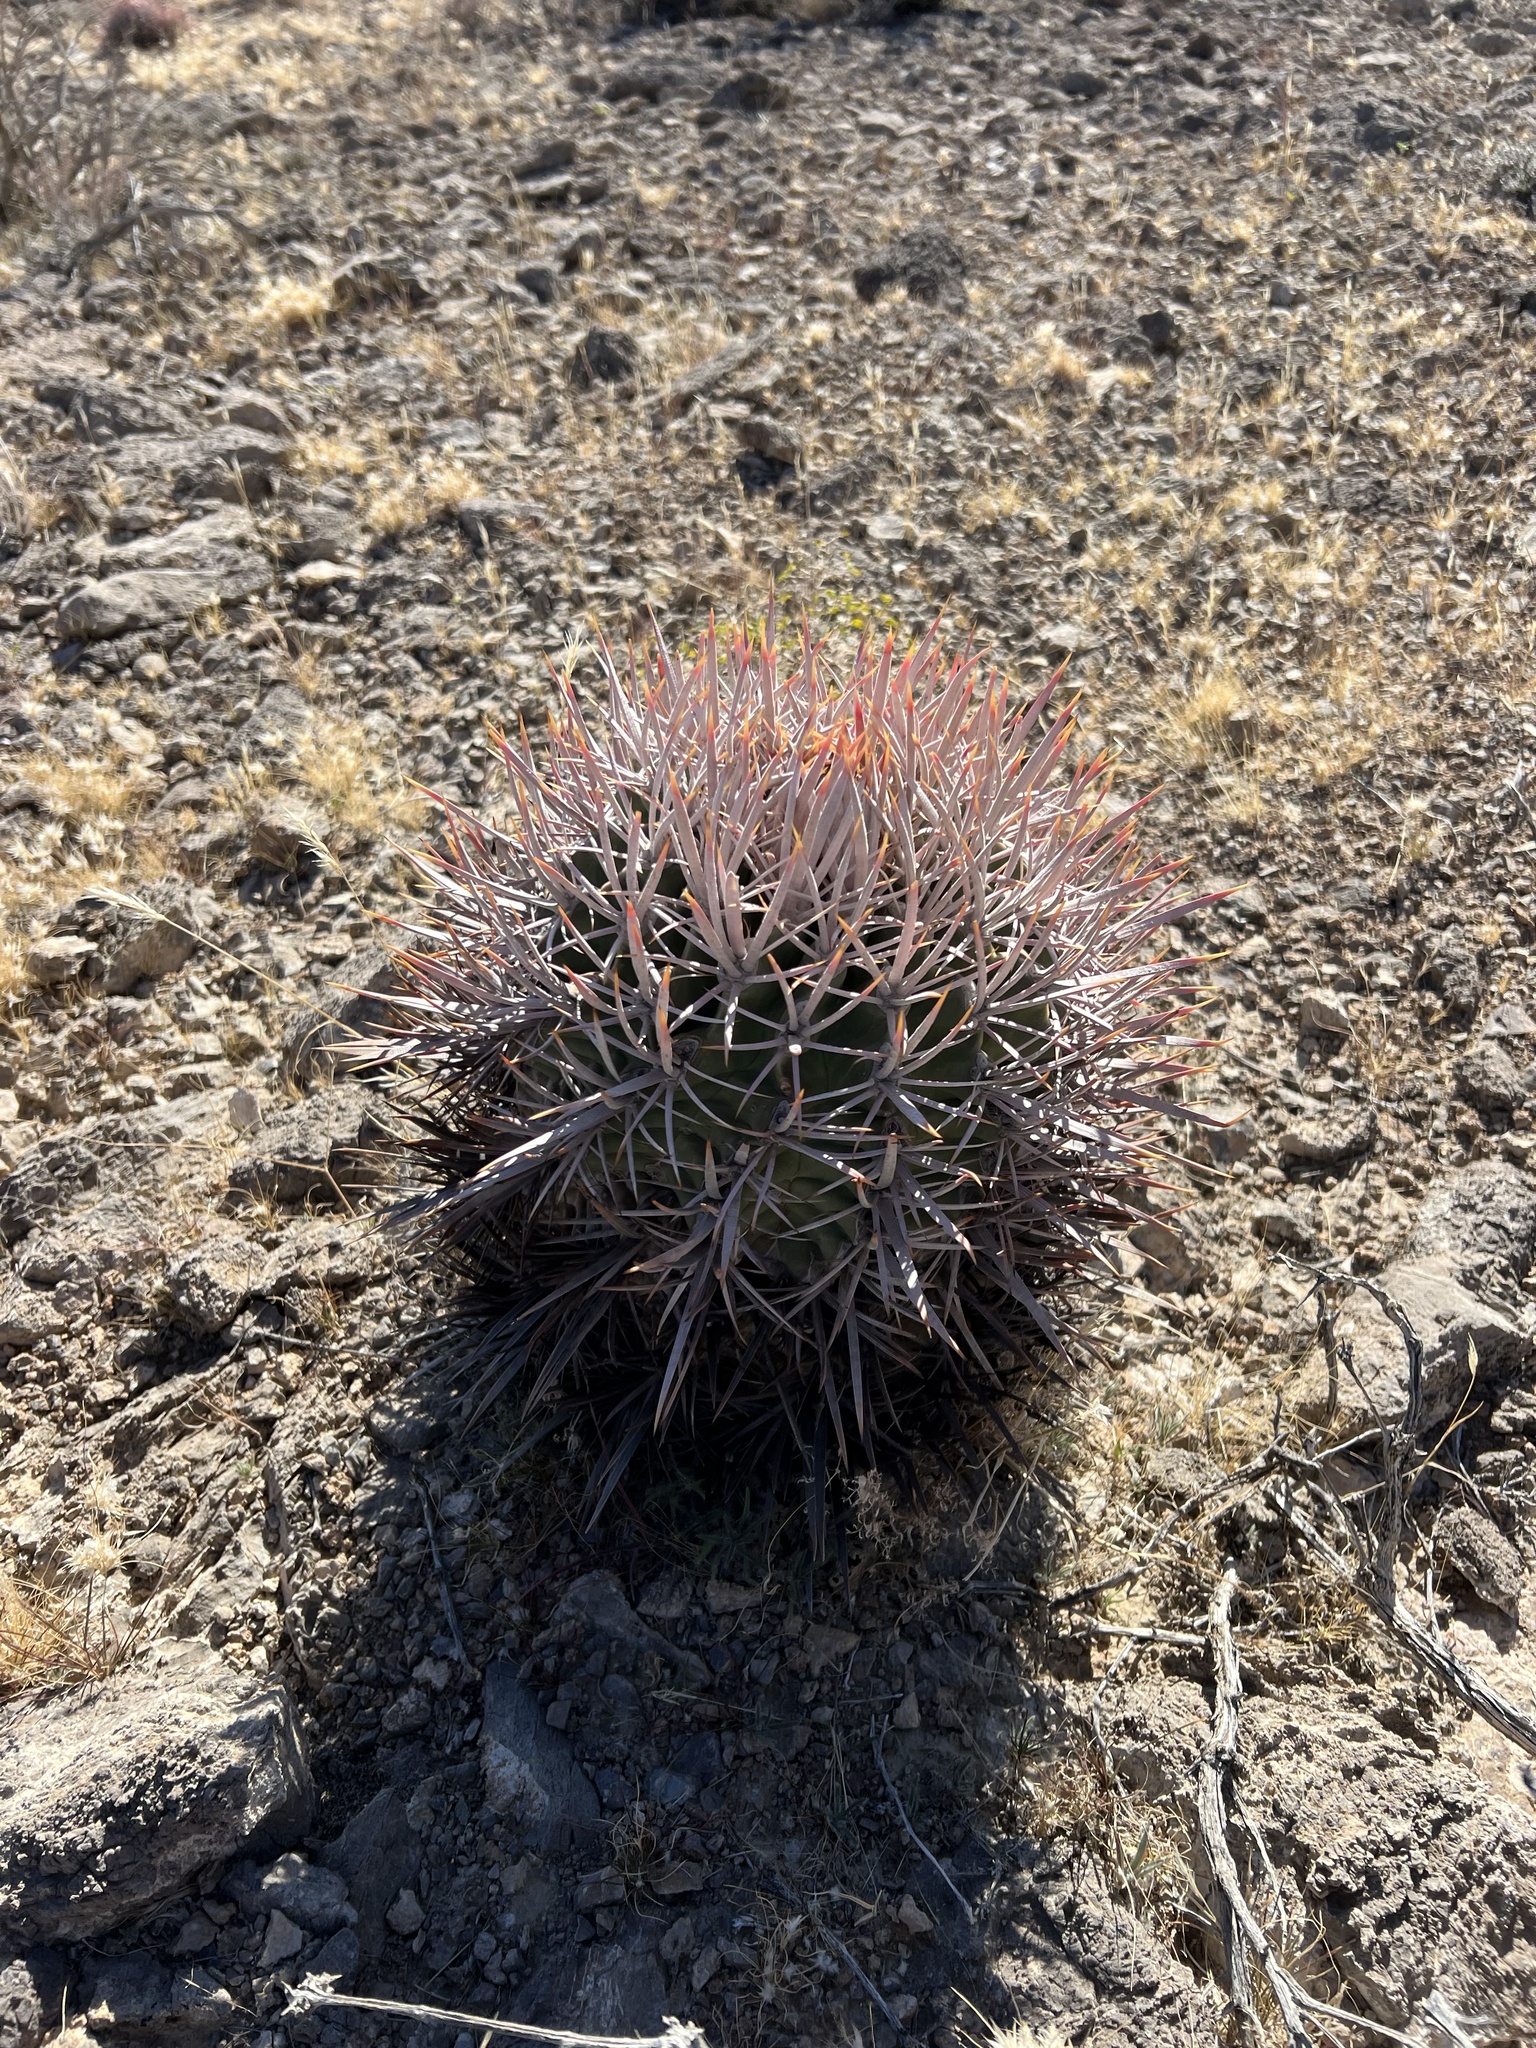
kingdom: Plantae
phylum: Tracheophyta
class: Magnoliopsida
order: Caryophyllales
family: Cactaceae
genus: Echinocactus
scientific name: Echinocactus polycephalus
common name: Cottontop cactus
